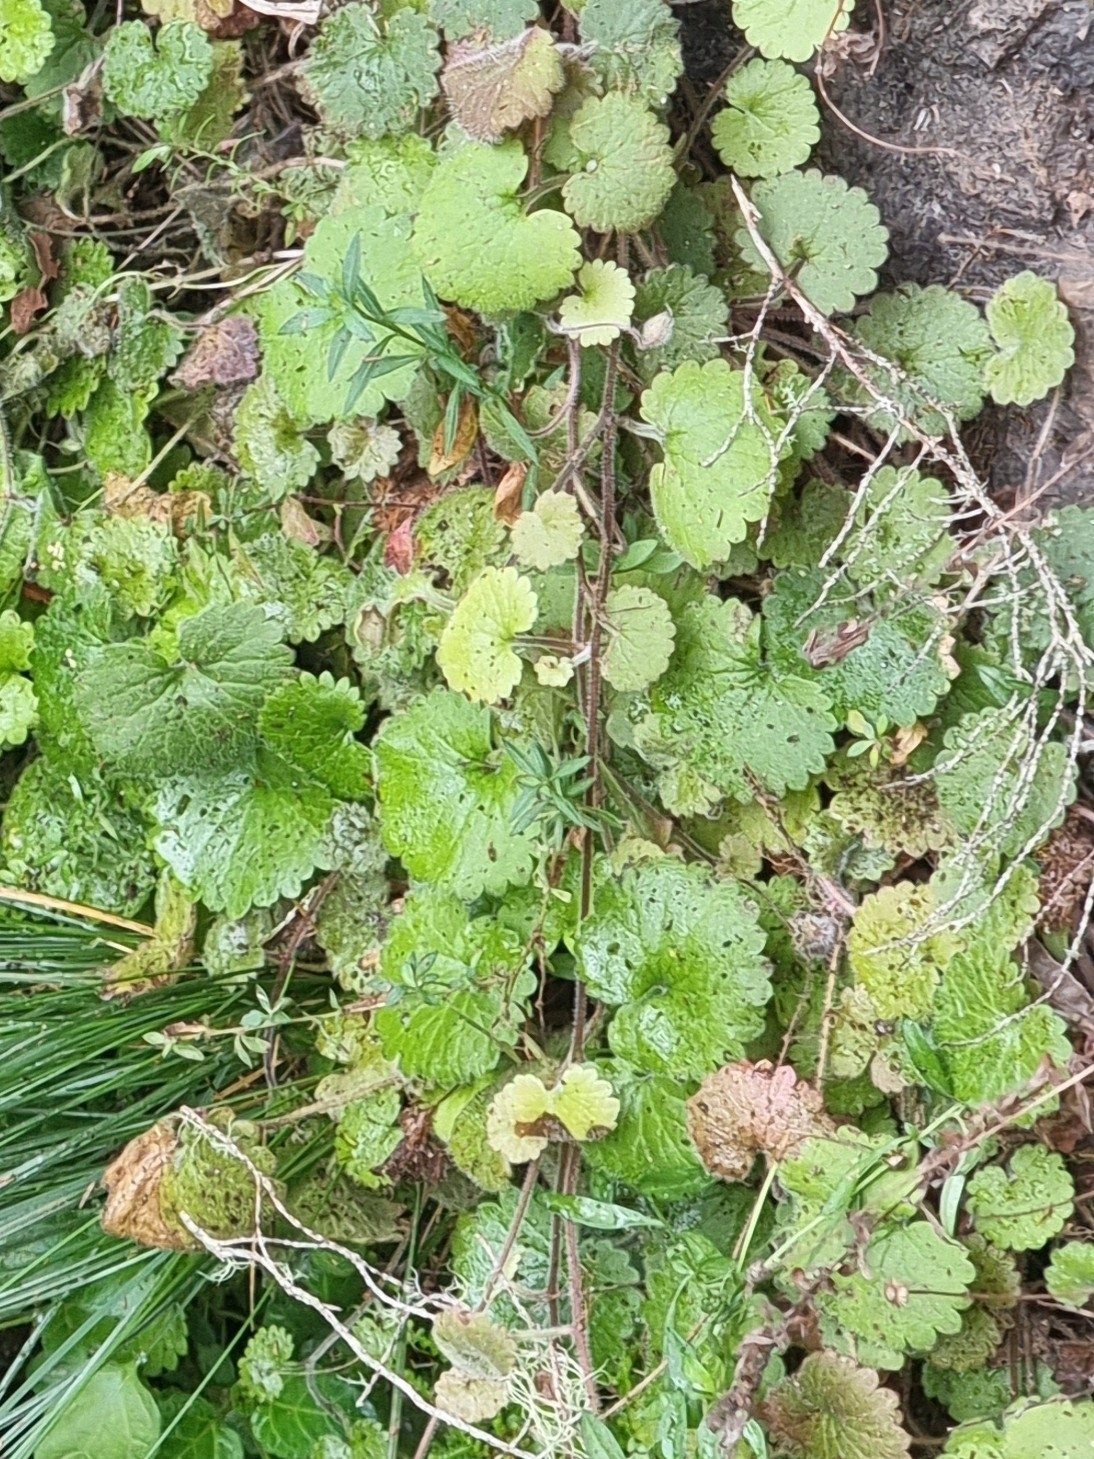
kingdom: Plantae
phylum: Tracheophyta
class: Magnoliopsida
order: Lamiales
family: Plantaginaceae
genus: Sibthorpia
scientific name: Sibthorpia peregrina
